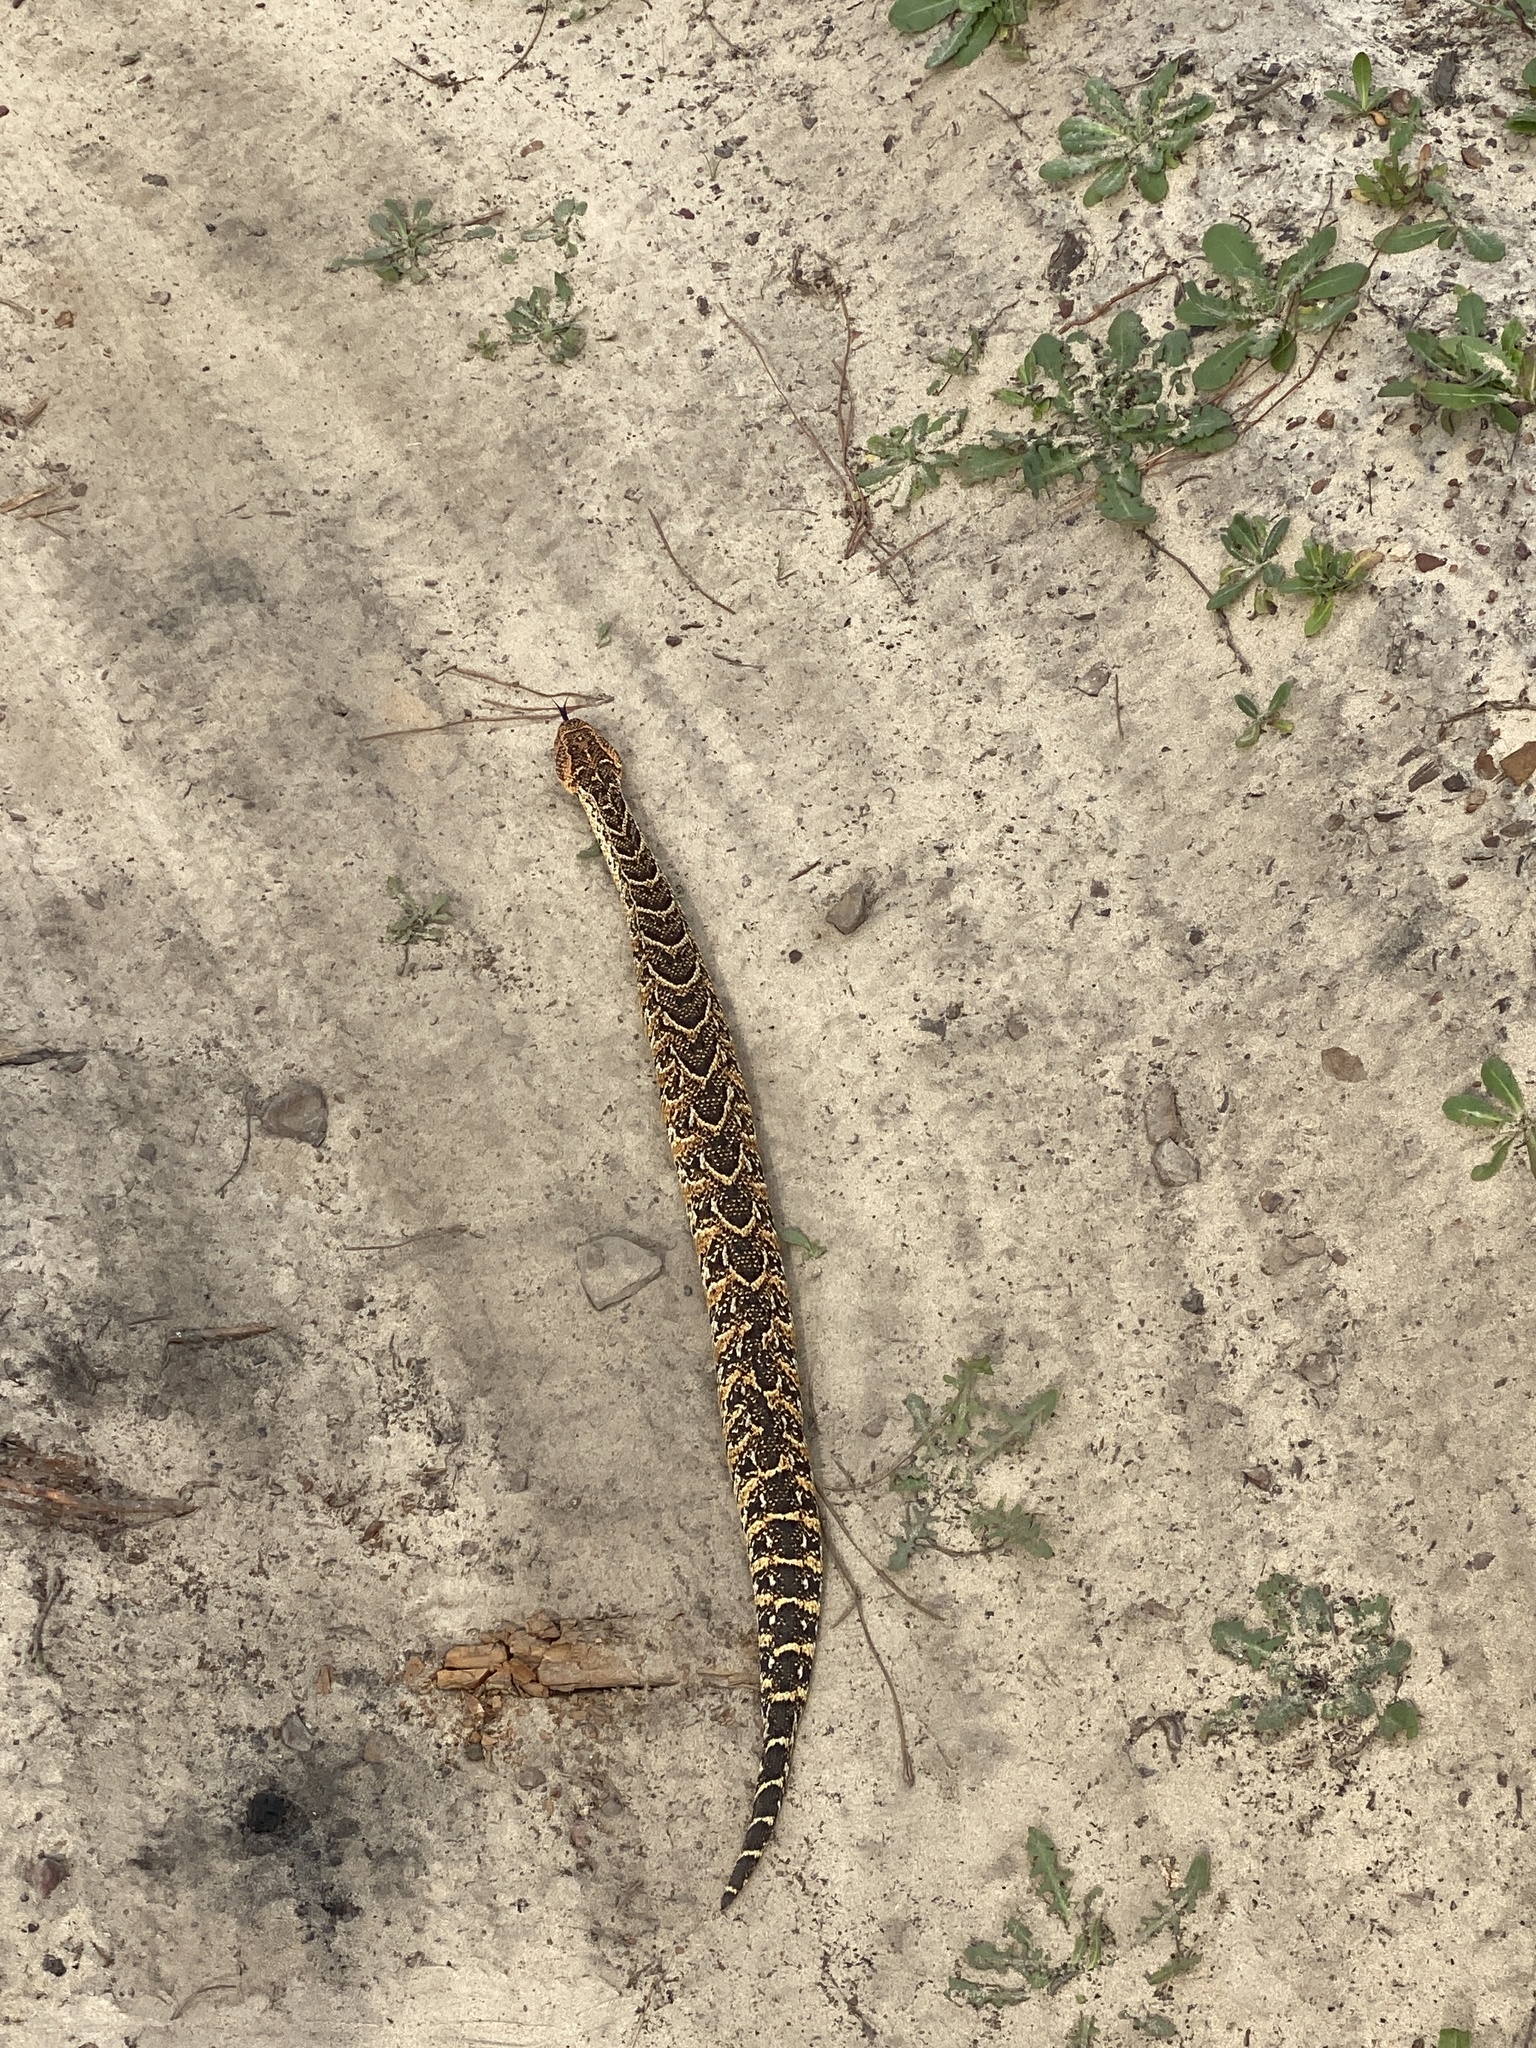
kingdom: Animalia
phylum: Chordata
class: Squamata
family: Viperidae
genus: Bitis
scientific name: Bitis arietans
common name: Puff adder
